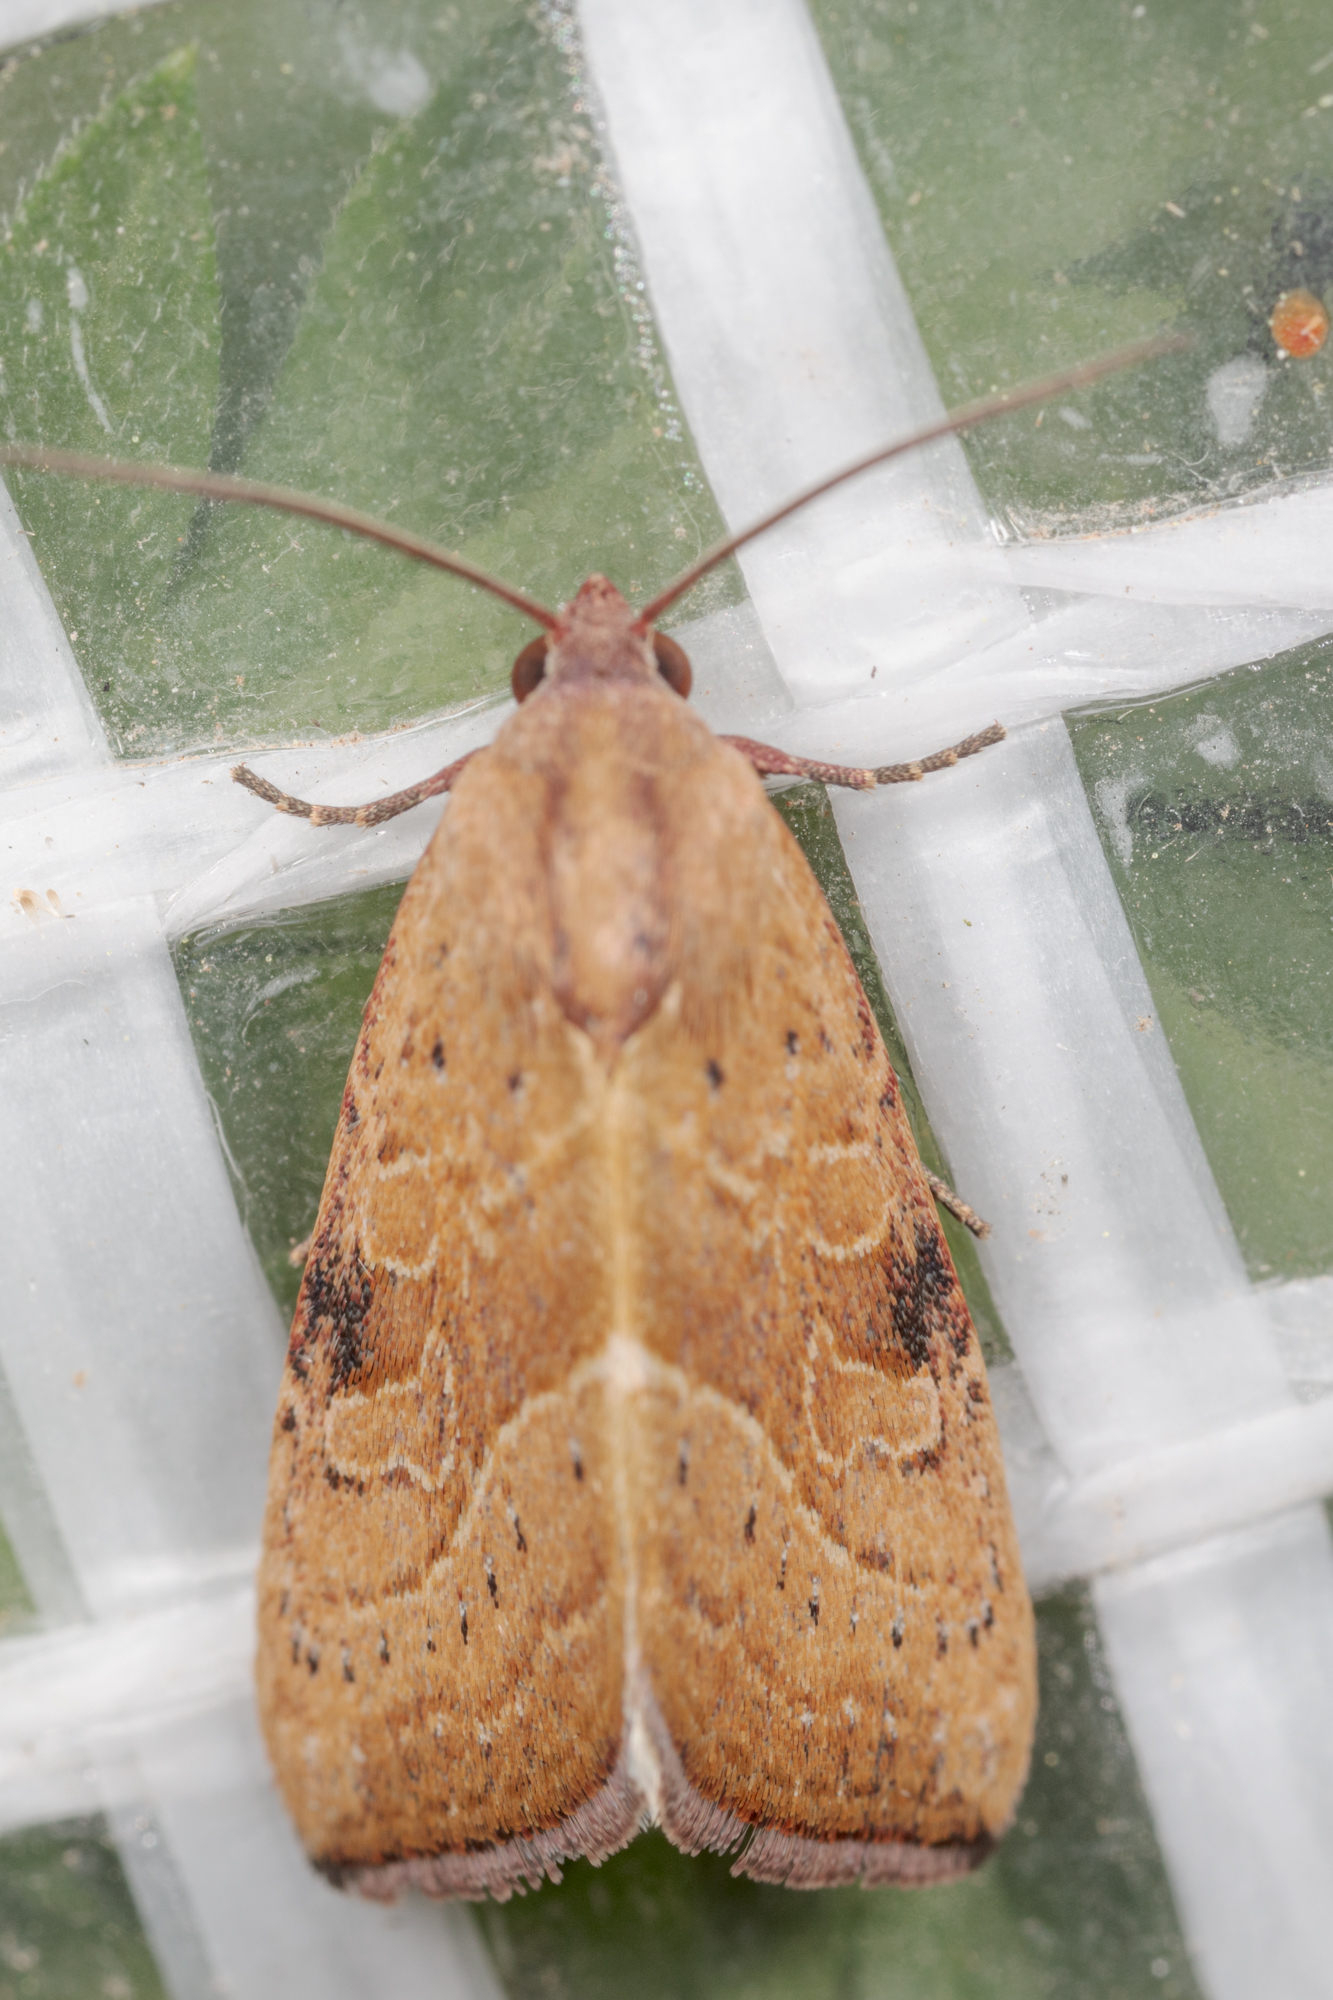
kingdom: Animalia
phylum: Arthropoda
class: Insecta
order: Lepidoptera
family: Noctuidae
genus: Galgula
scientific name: Galgula partita
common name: Wedgeling
